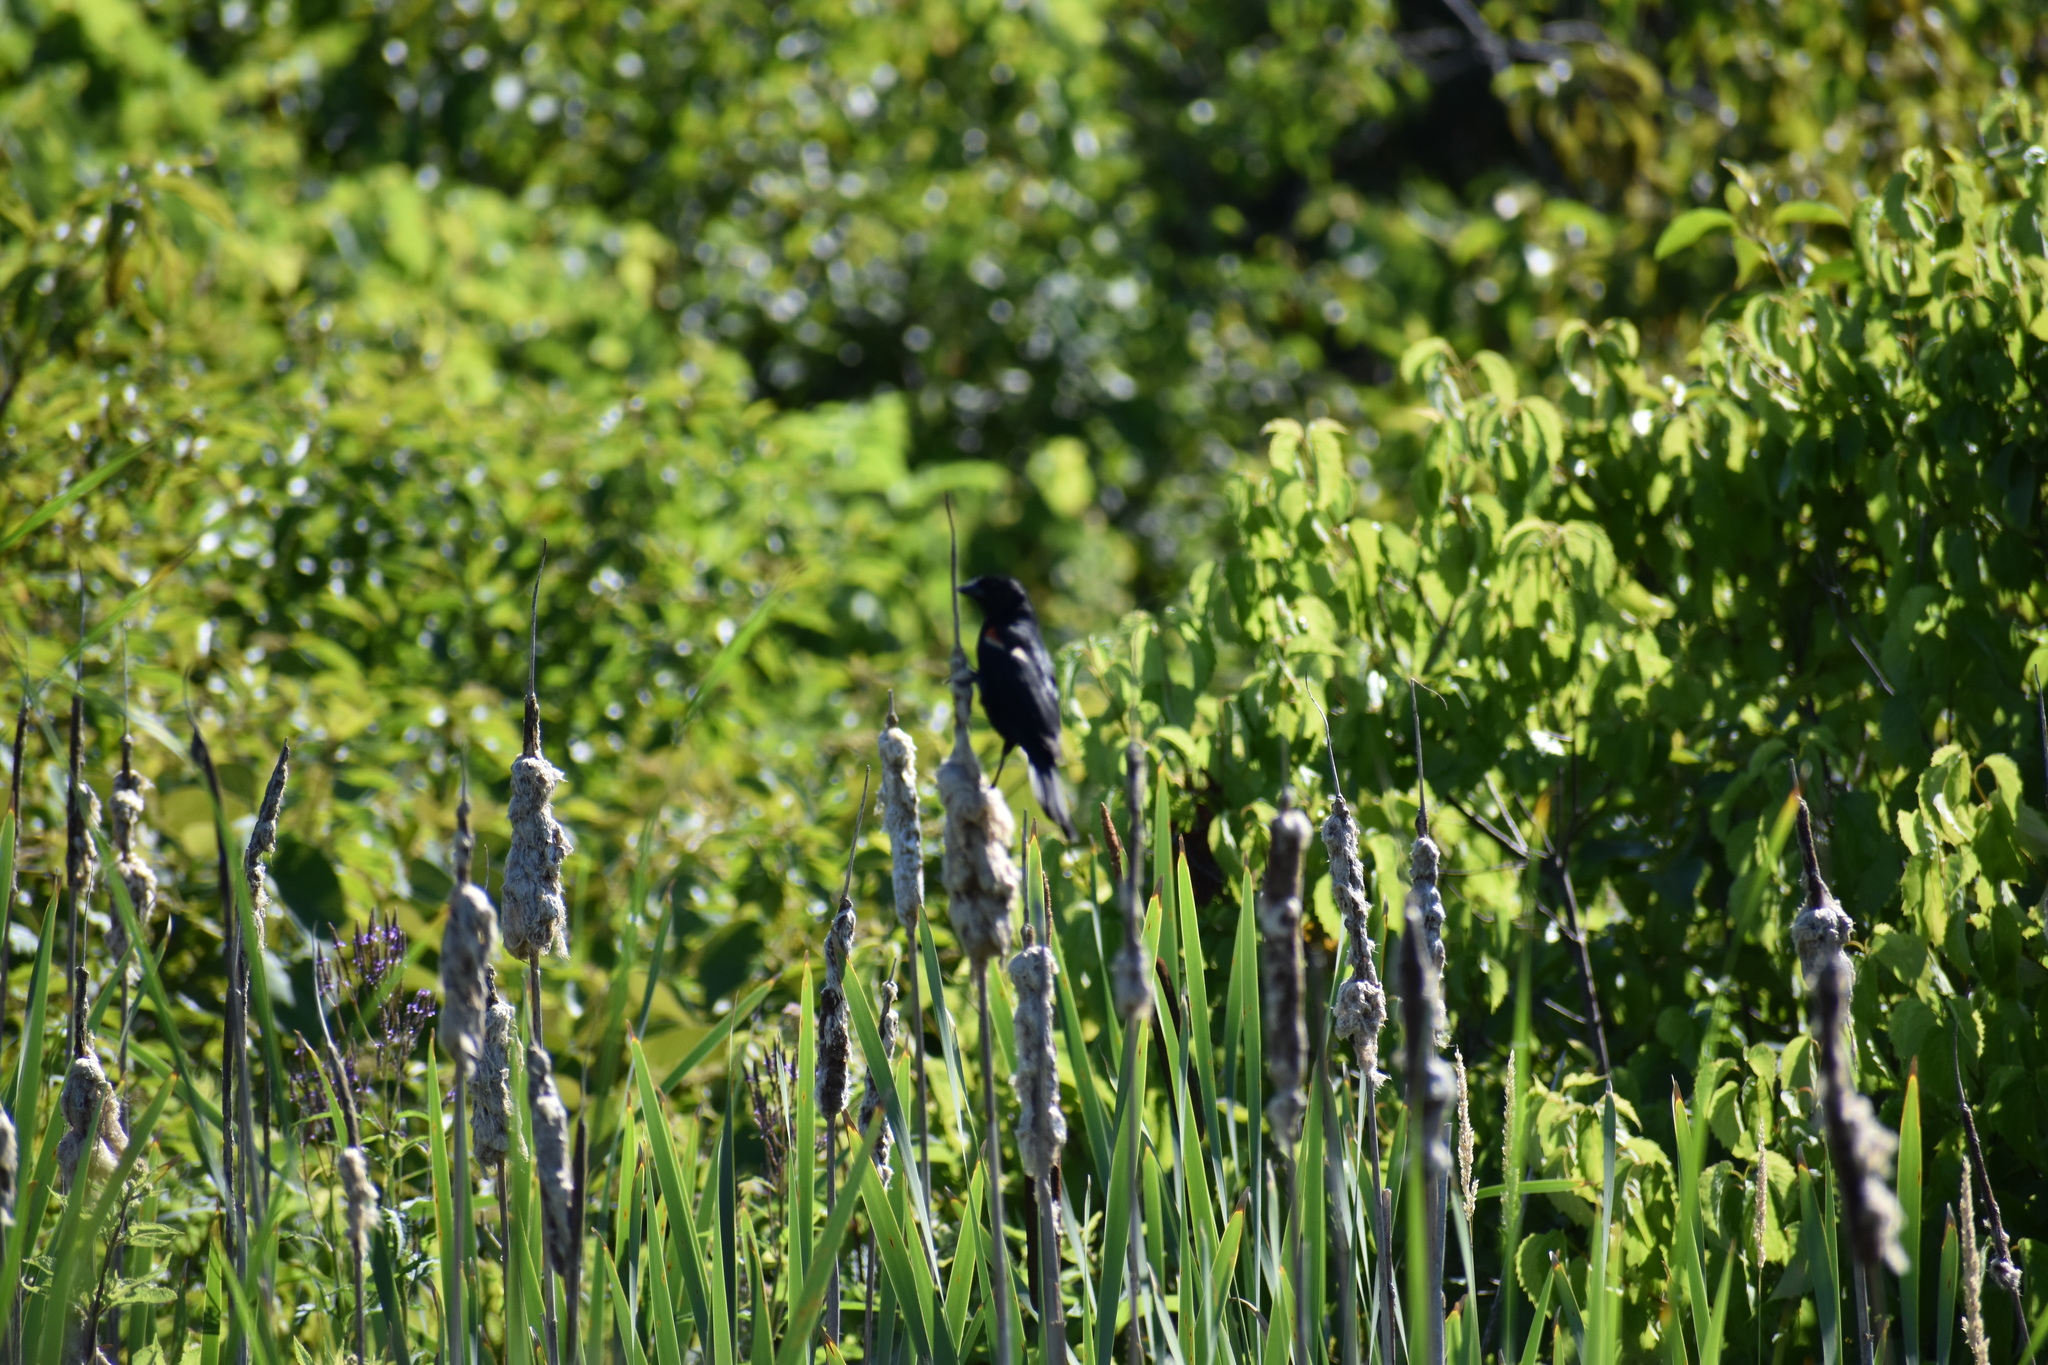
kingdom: Animalia
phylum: Chordata
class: Aves
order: Passeriformes
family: Icteridae
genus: Agelaius
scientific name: Agelaius phoeniceus
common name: Red-winged blackbird
